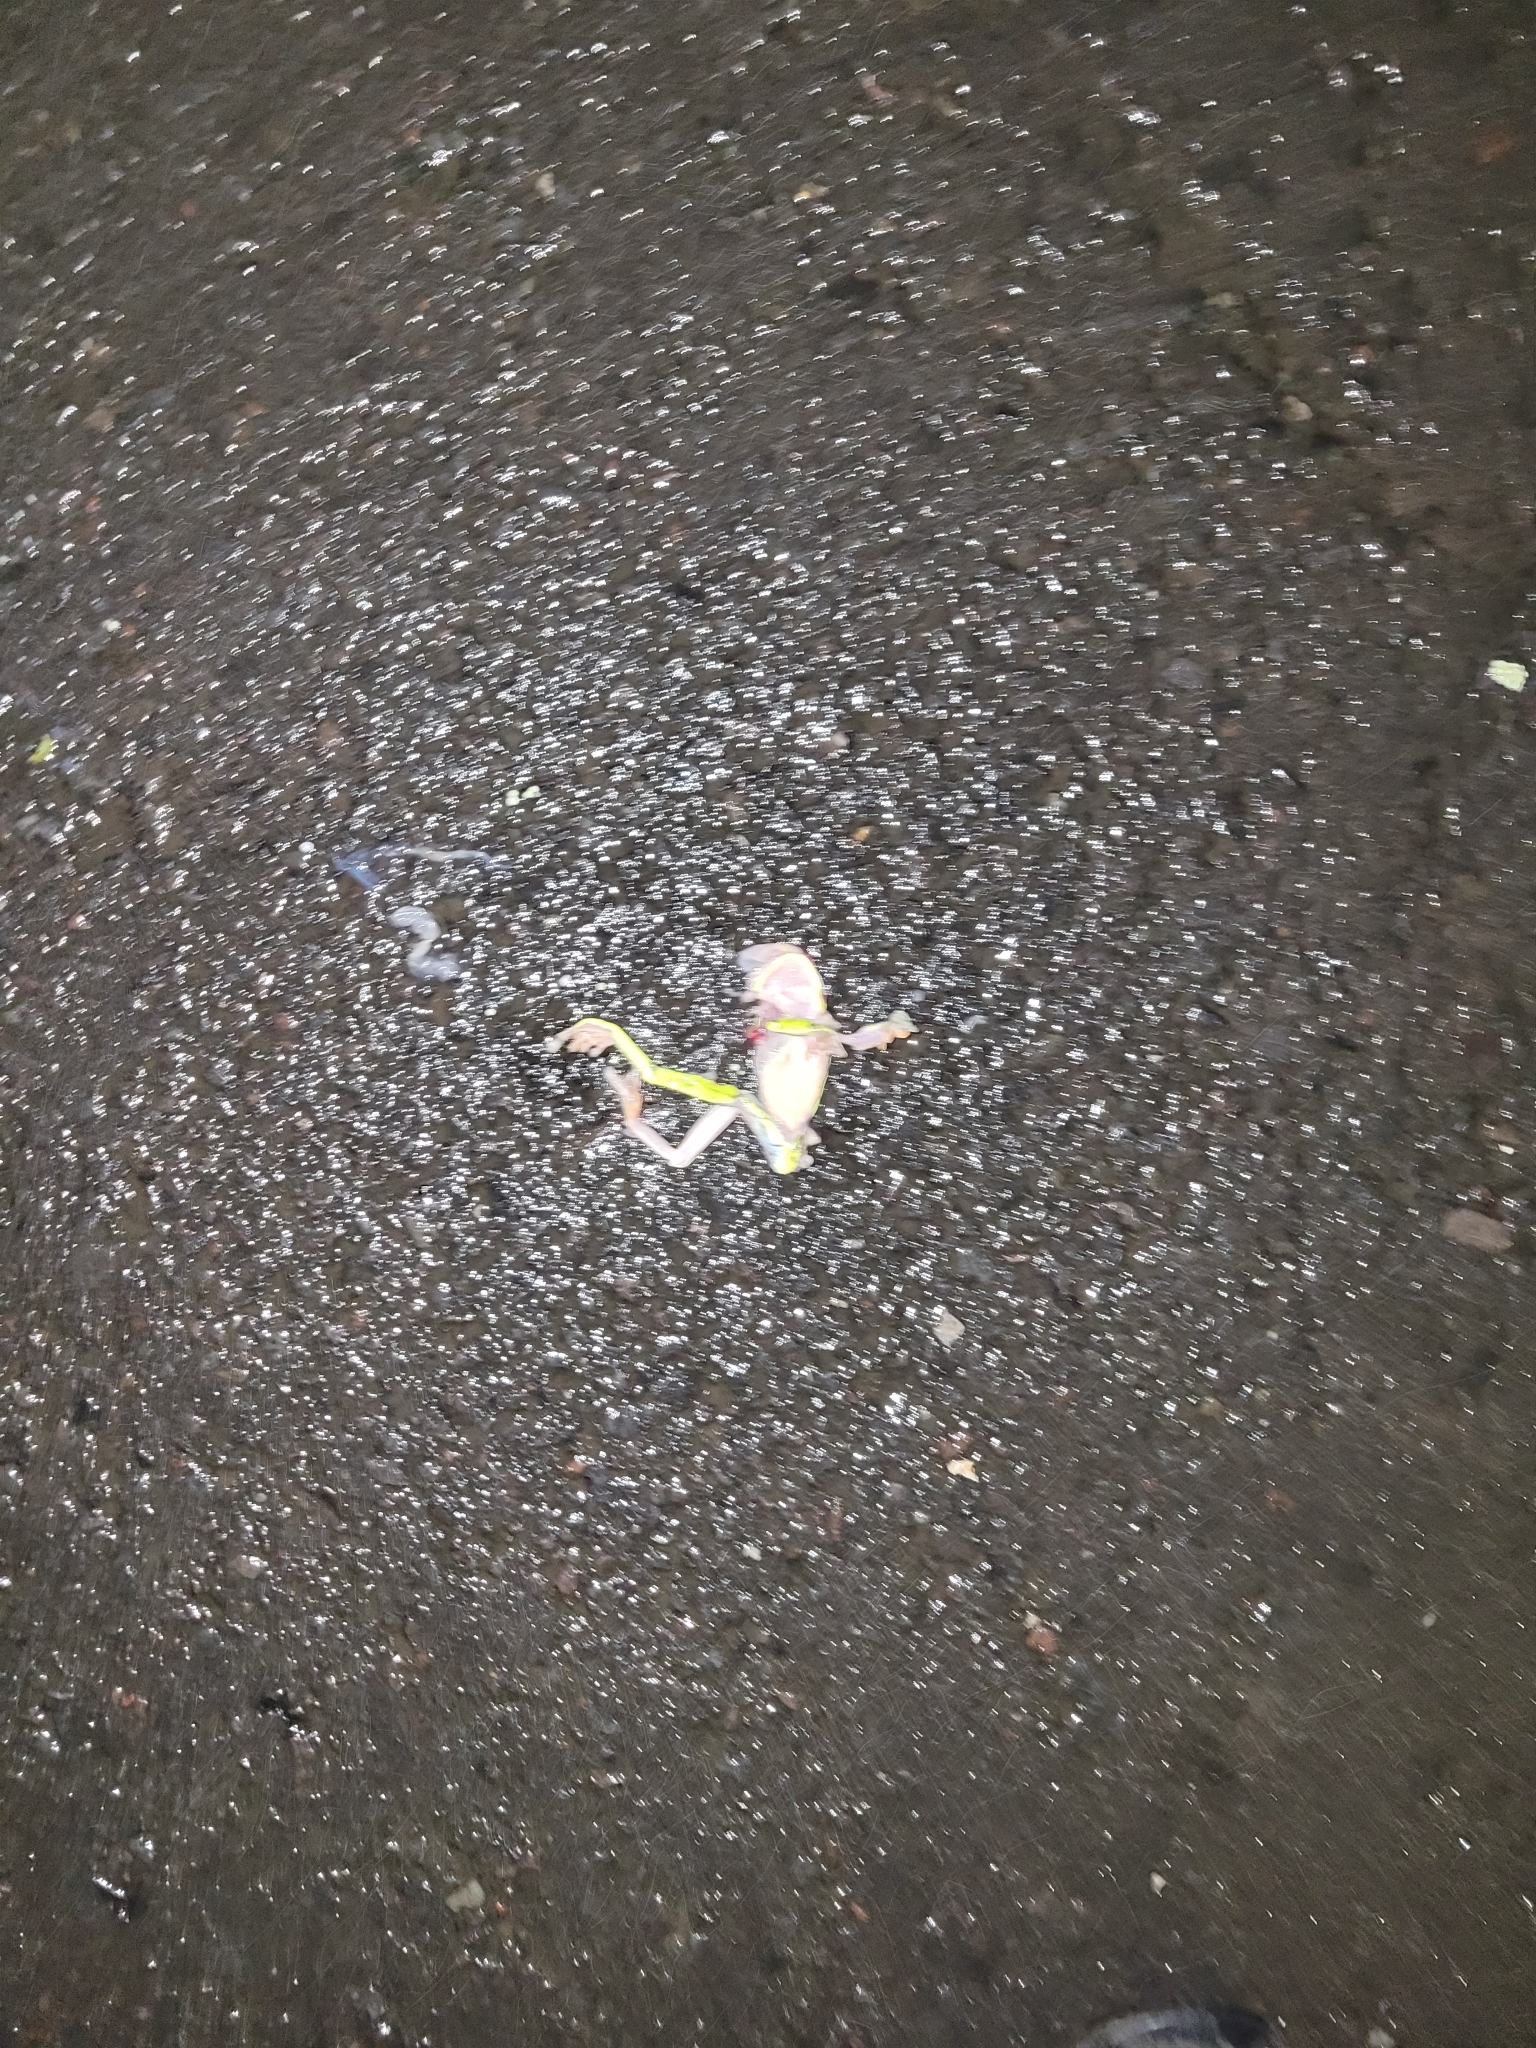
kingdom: Animalia
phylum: Chordata
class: Amphibia
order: Anura
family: Phyllomedusidae
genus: Agalychnis
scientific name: Agalychnis annae
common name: Blue-sided treefrog
